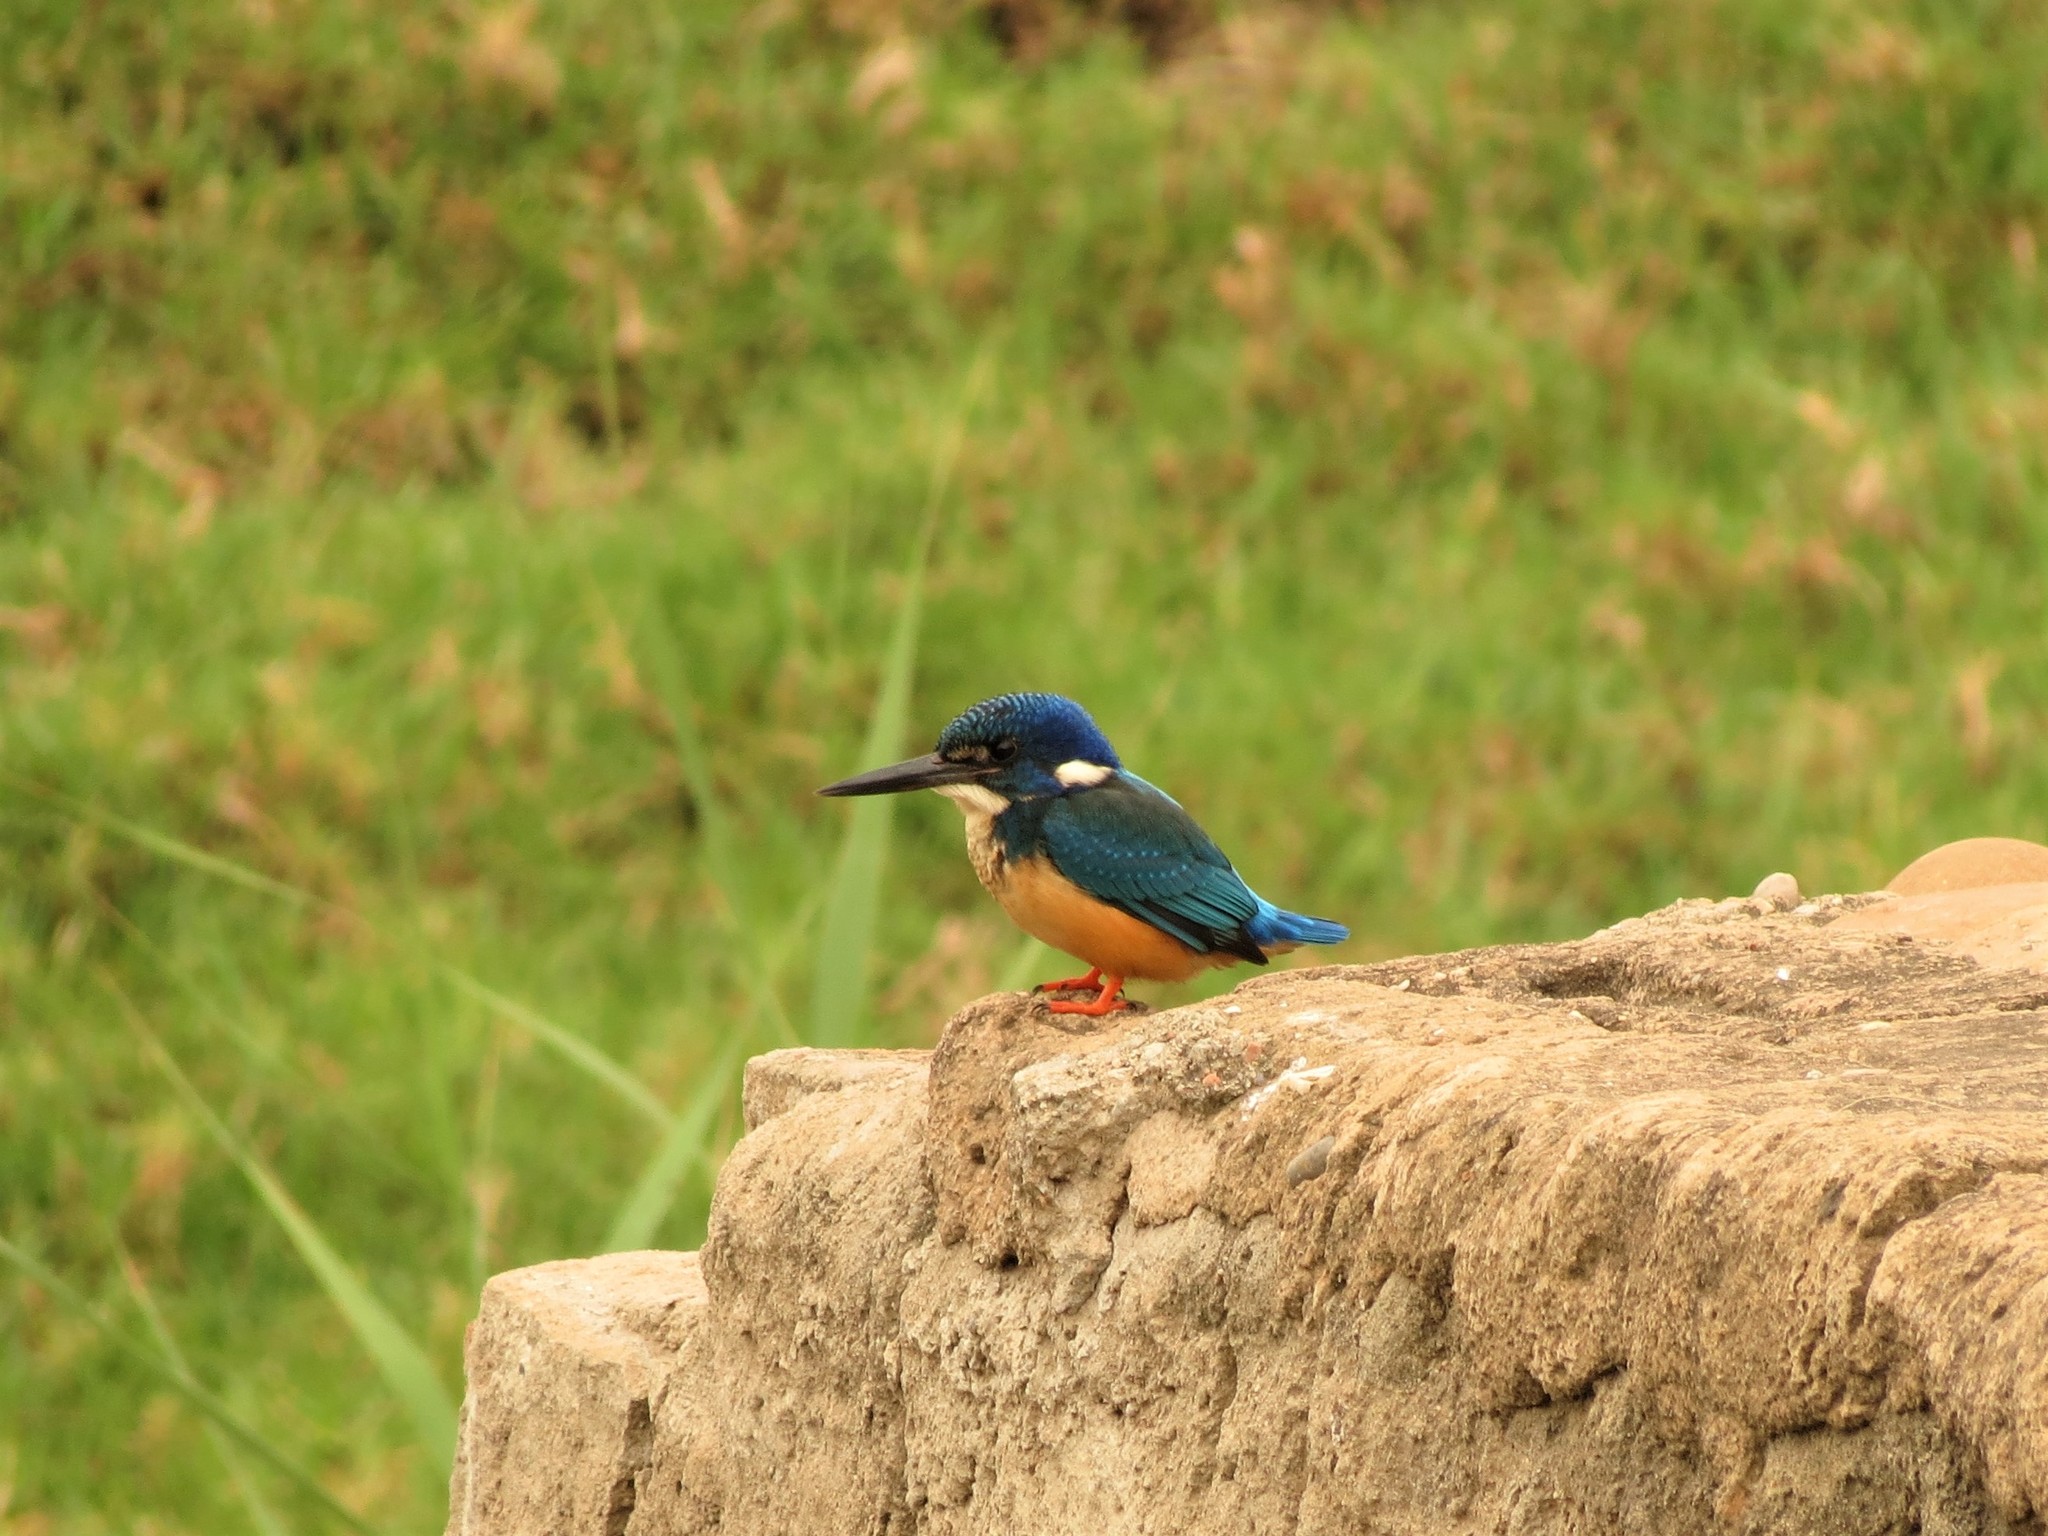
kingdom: Animalia
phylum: Chordata
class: Aves
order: Coraciiformes
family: Alcedinidae
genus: Alcedo
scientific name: Alcedo semitorquata
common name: Half-collared kingfisher
